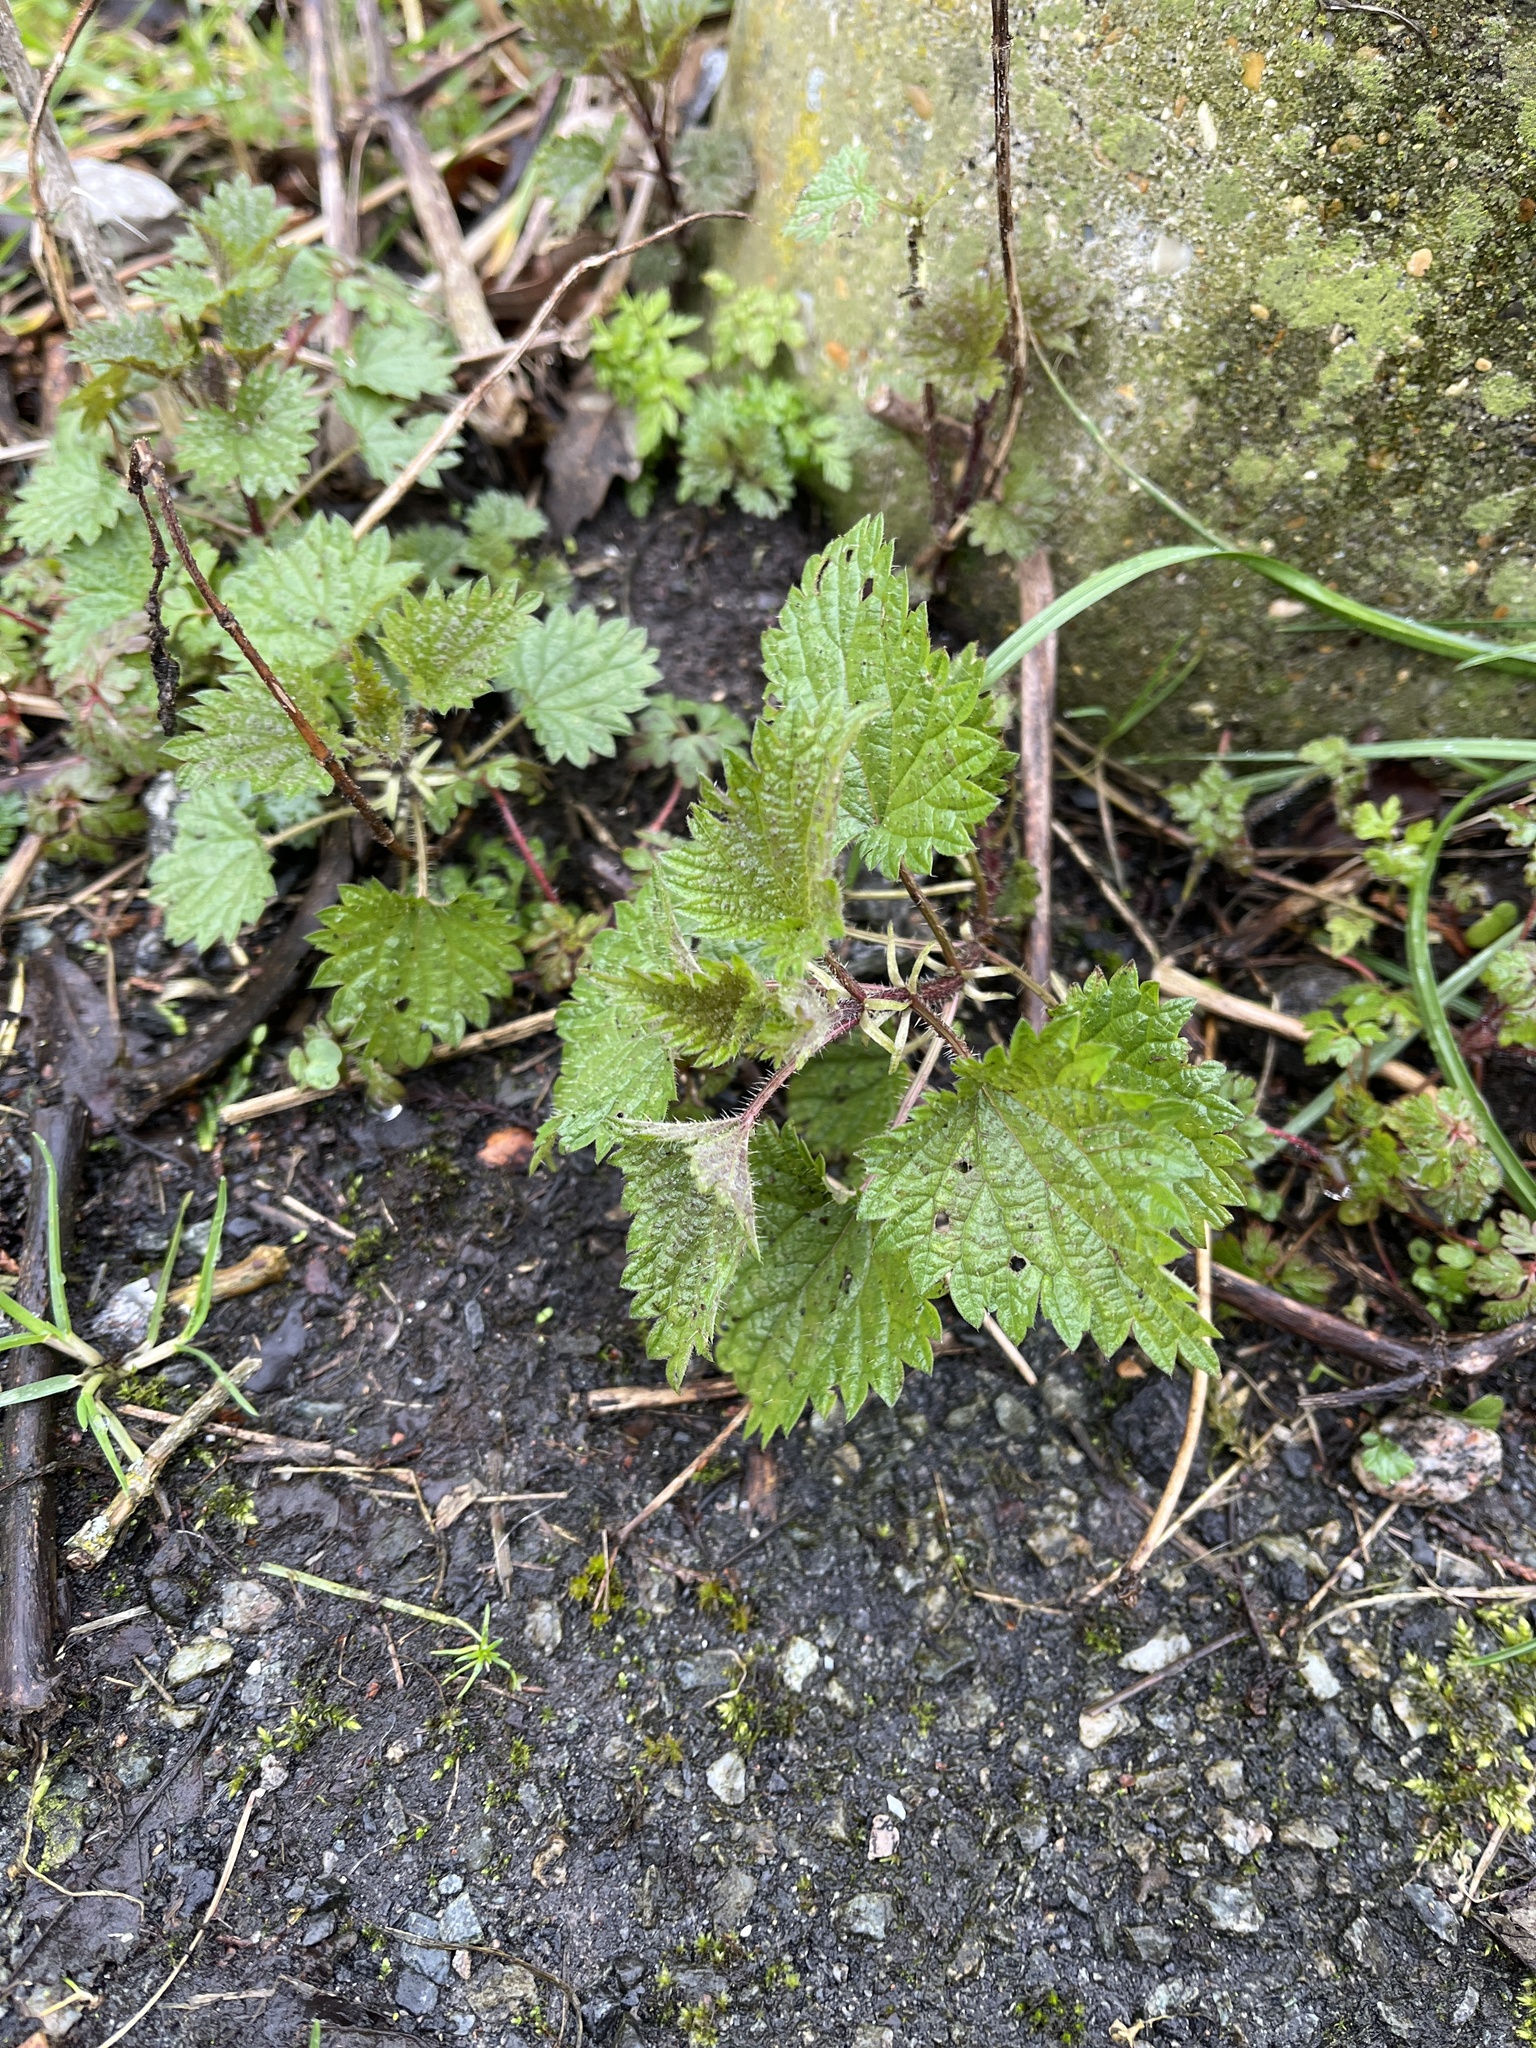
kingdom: Plantae
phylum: Tracheophyta
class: Magnoliopsida
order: Rosales
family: Urticaceae
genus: Urtica
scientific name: Urtica dioica
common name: Common nettle
